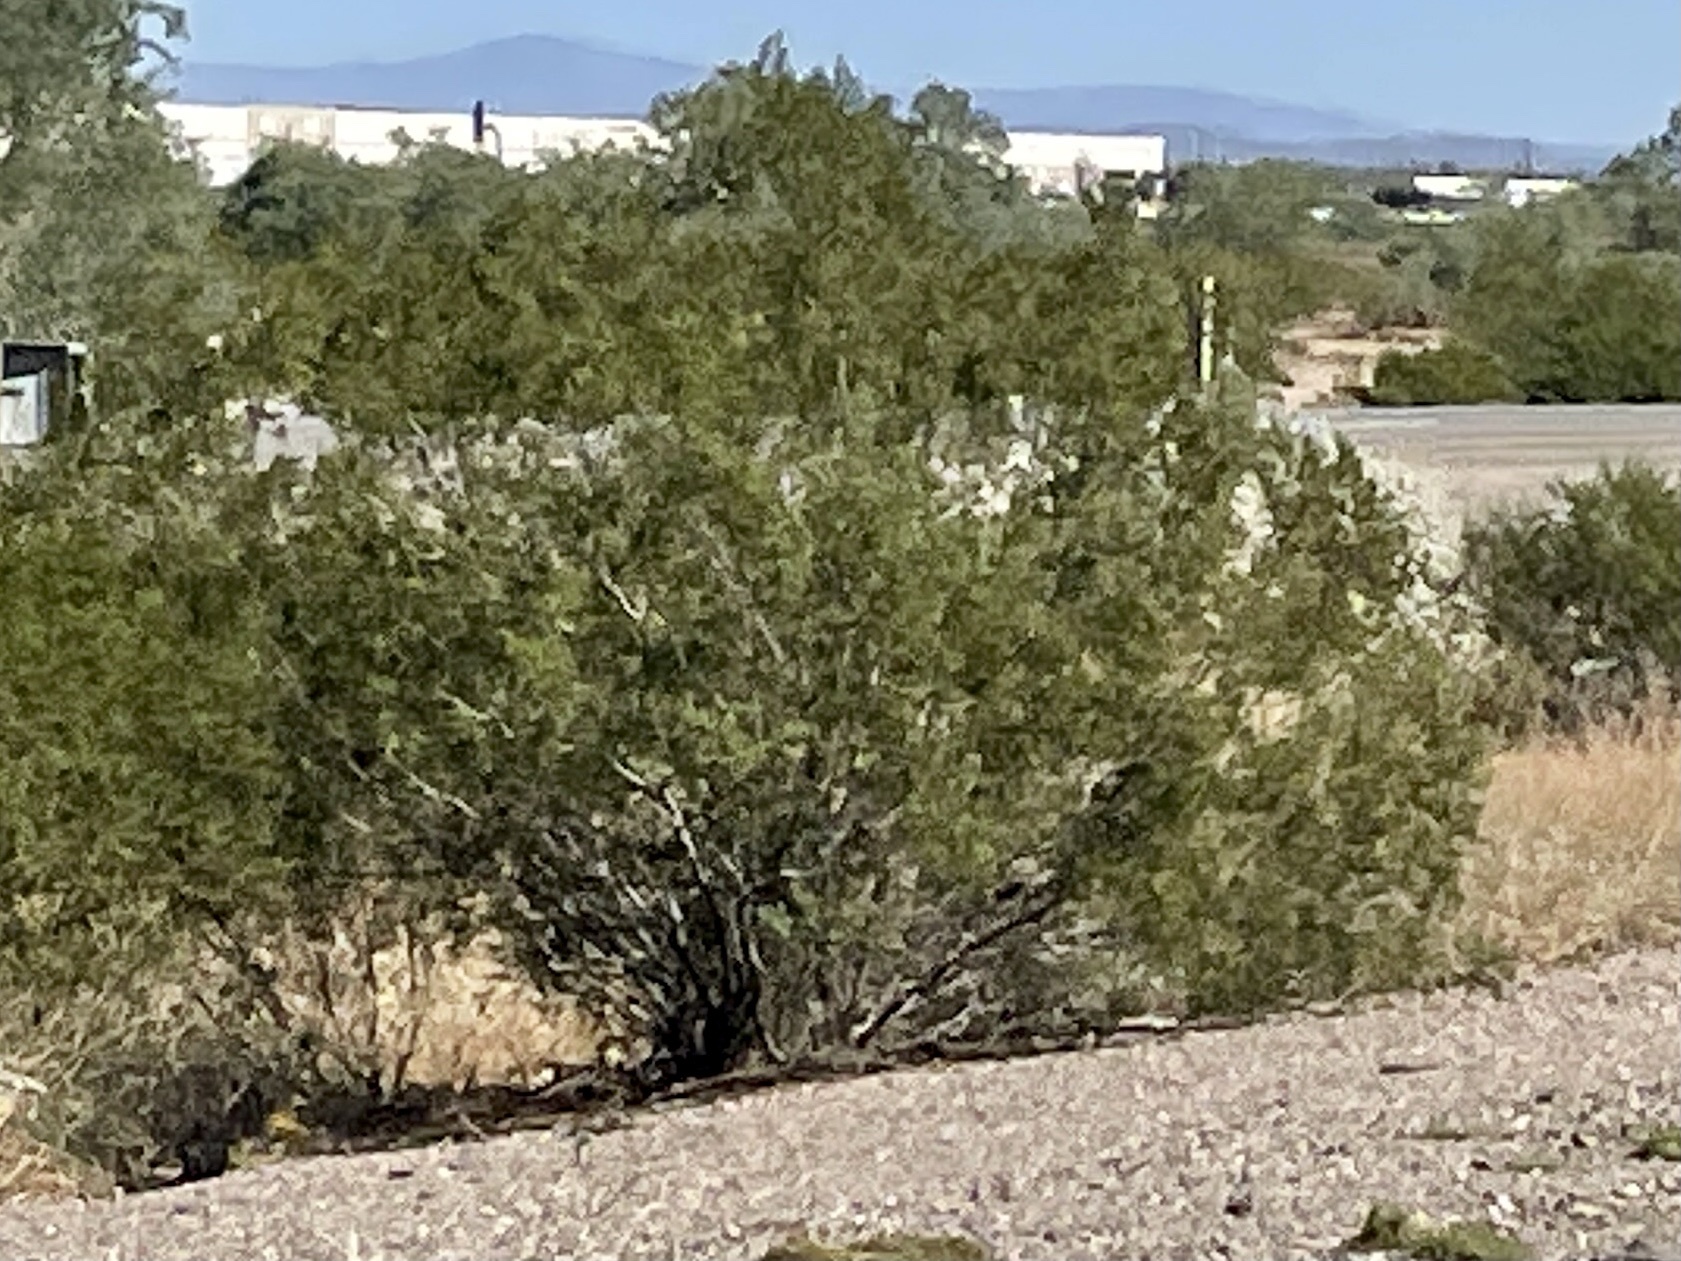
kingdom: Plantae
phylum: Tracheophyta
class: Magnoliopsida
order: Zygophyllales
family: Zygophyllaceae
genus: Larrea
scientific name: Larrea tridentata
